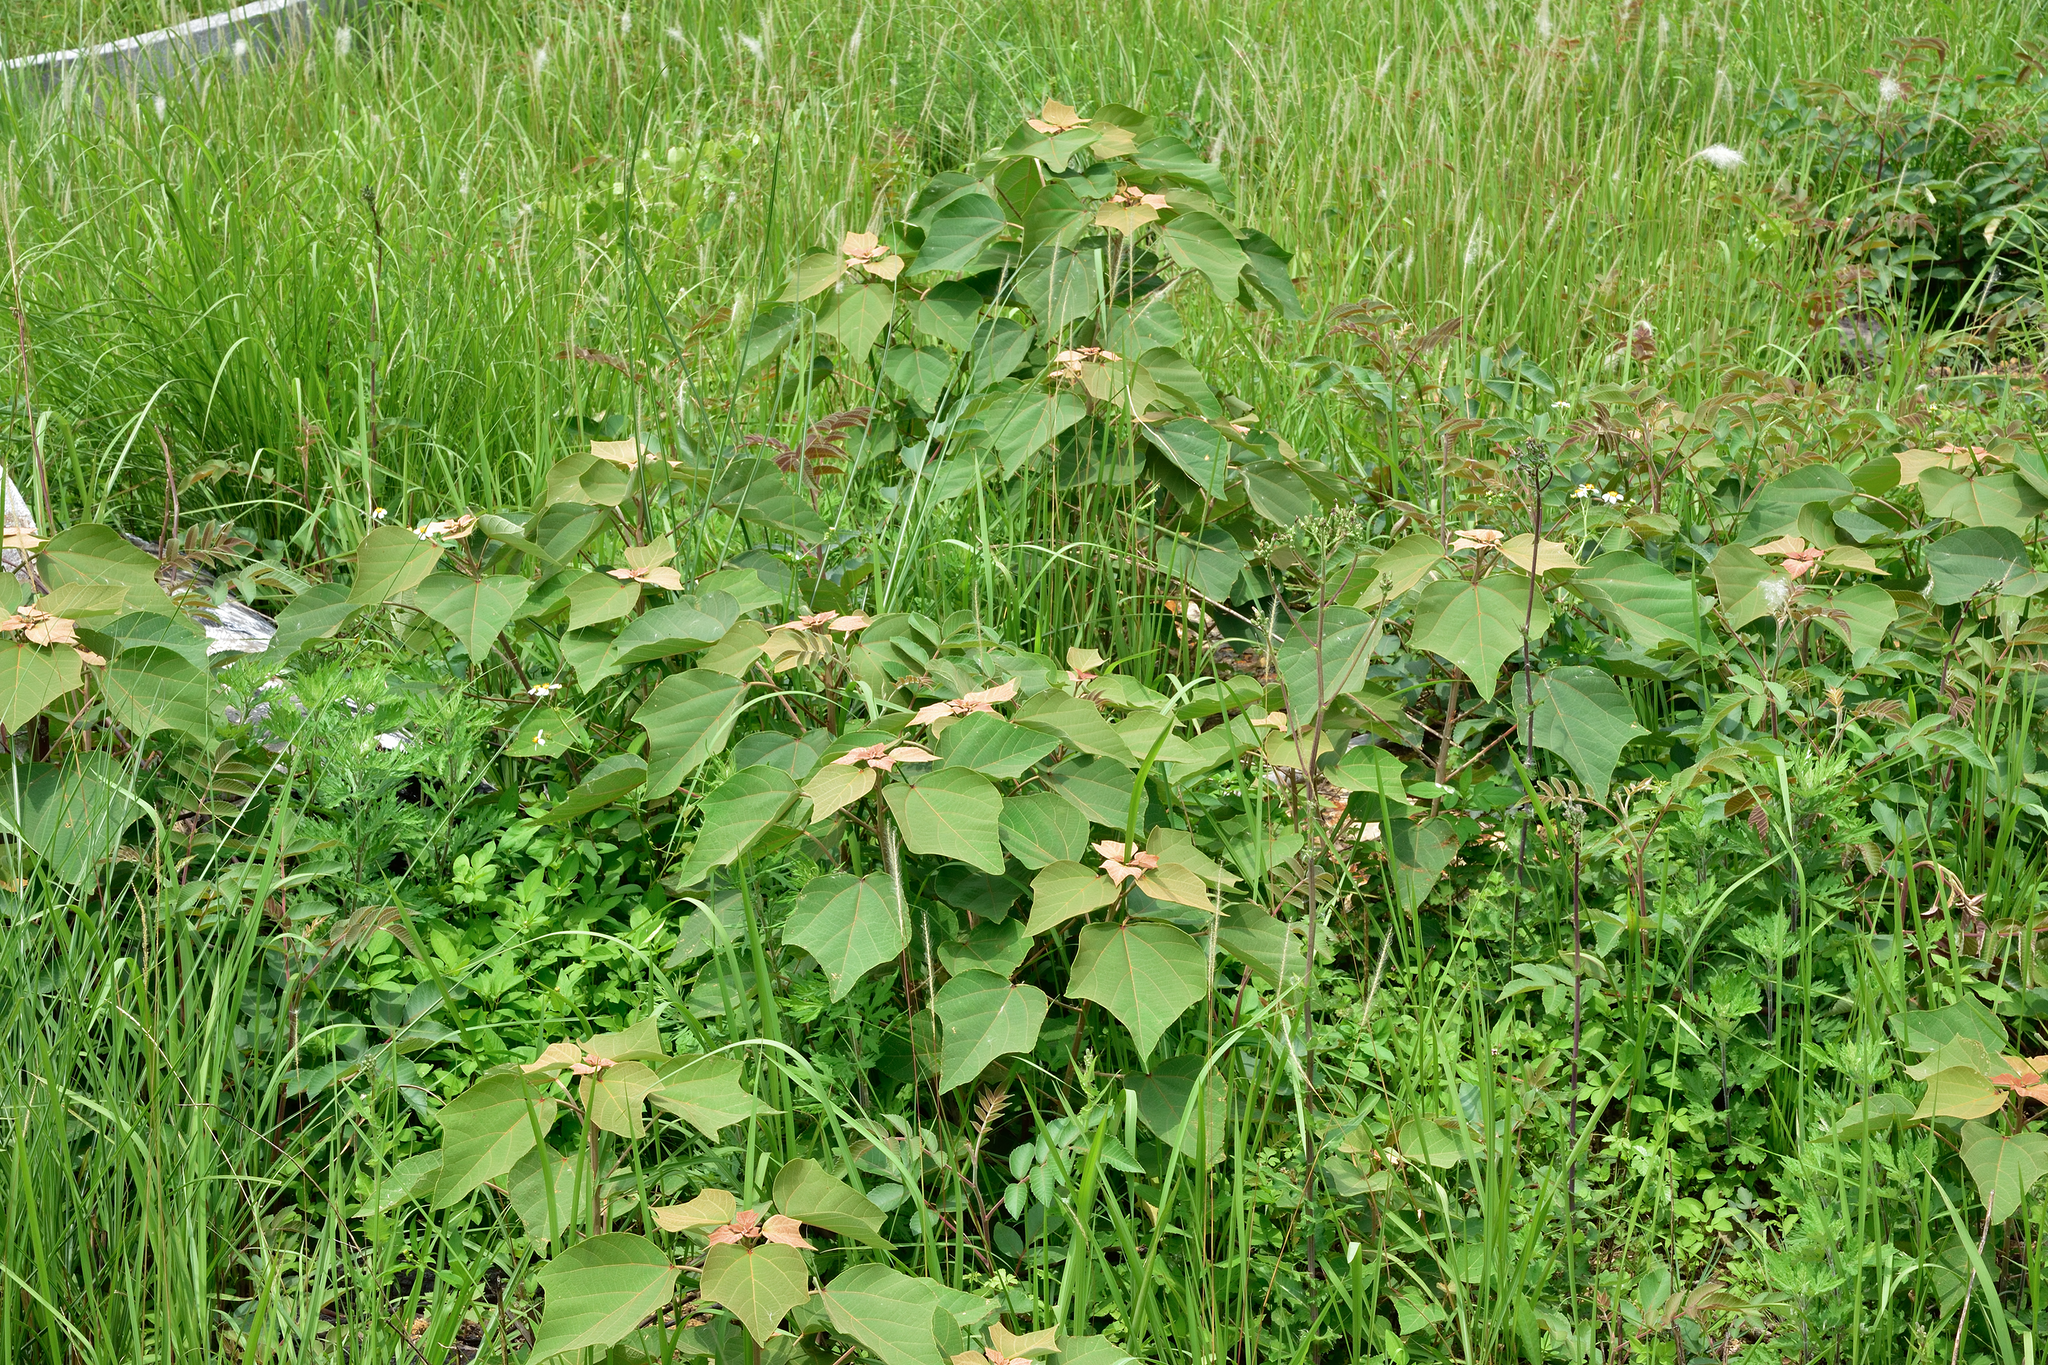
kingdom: Plantae
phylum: Tracheophyta
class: Magnoliopsida
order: Malpighiales
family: Euphorbiaceae
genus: Mallotus
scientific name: Mallotus japonicus
